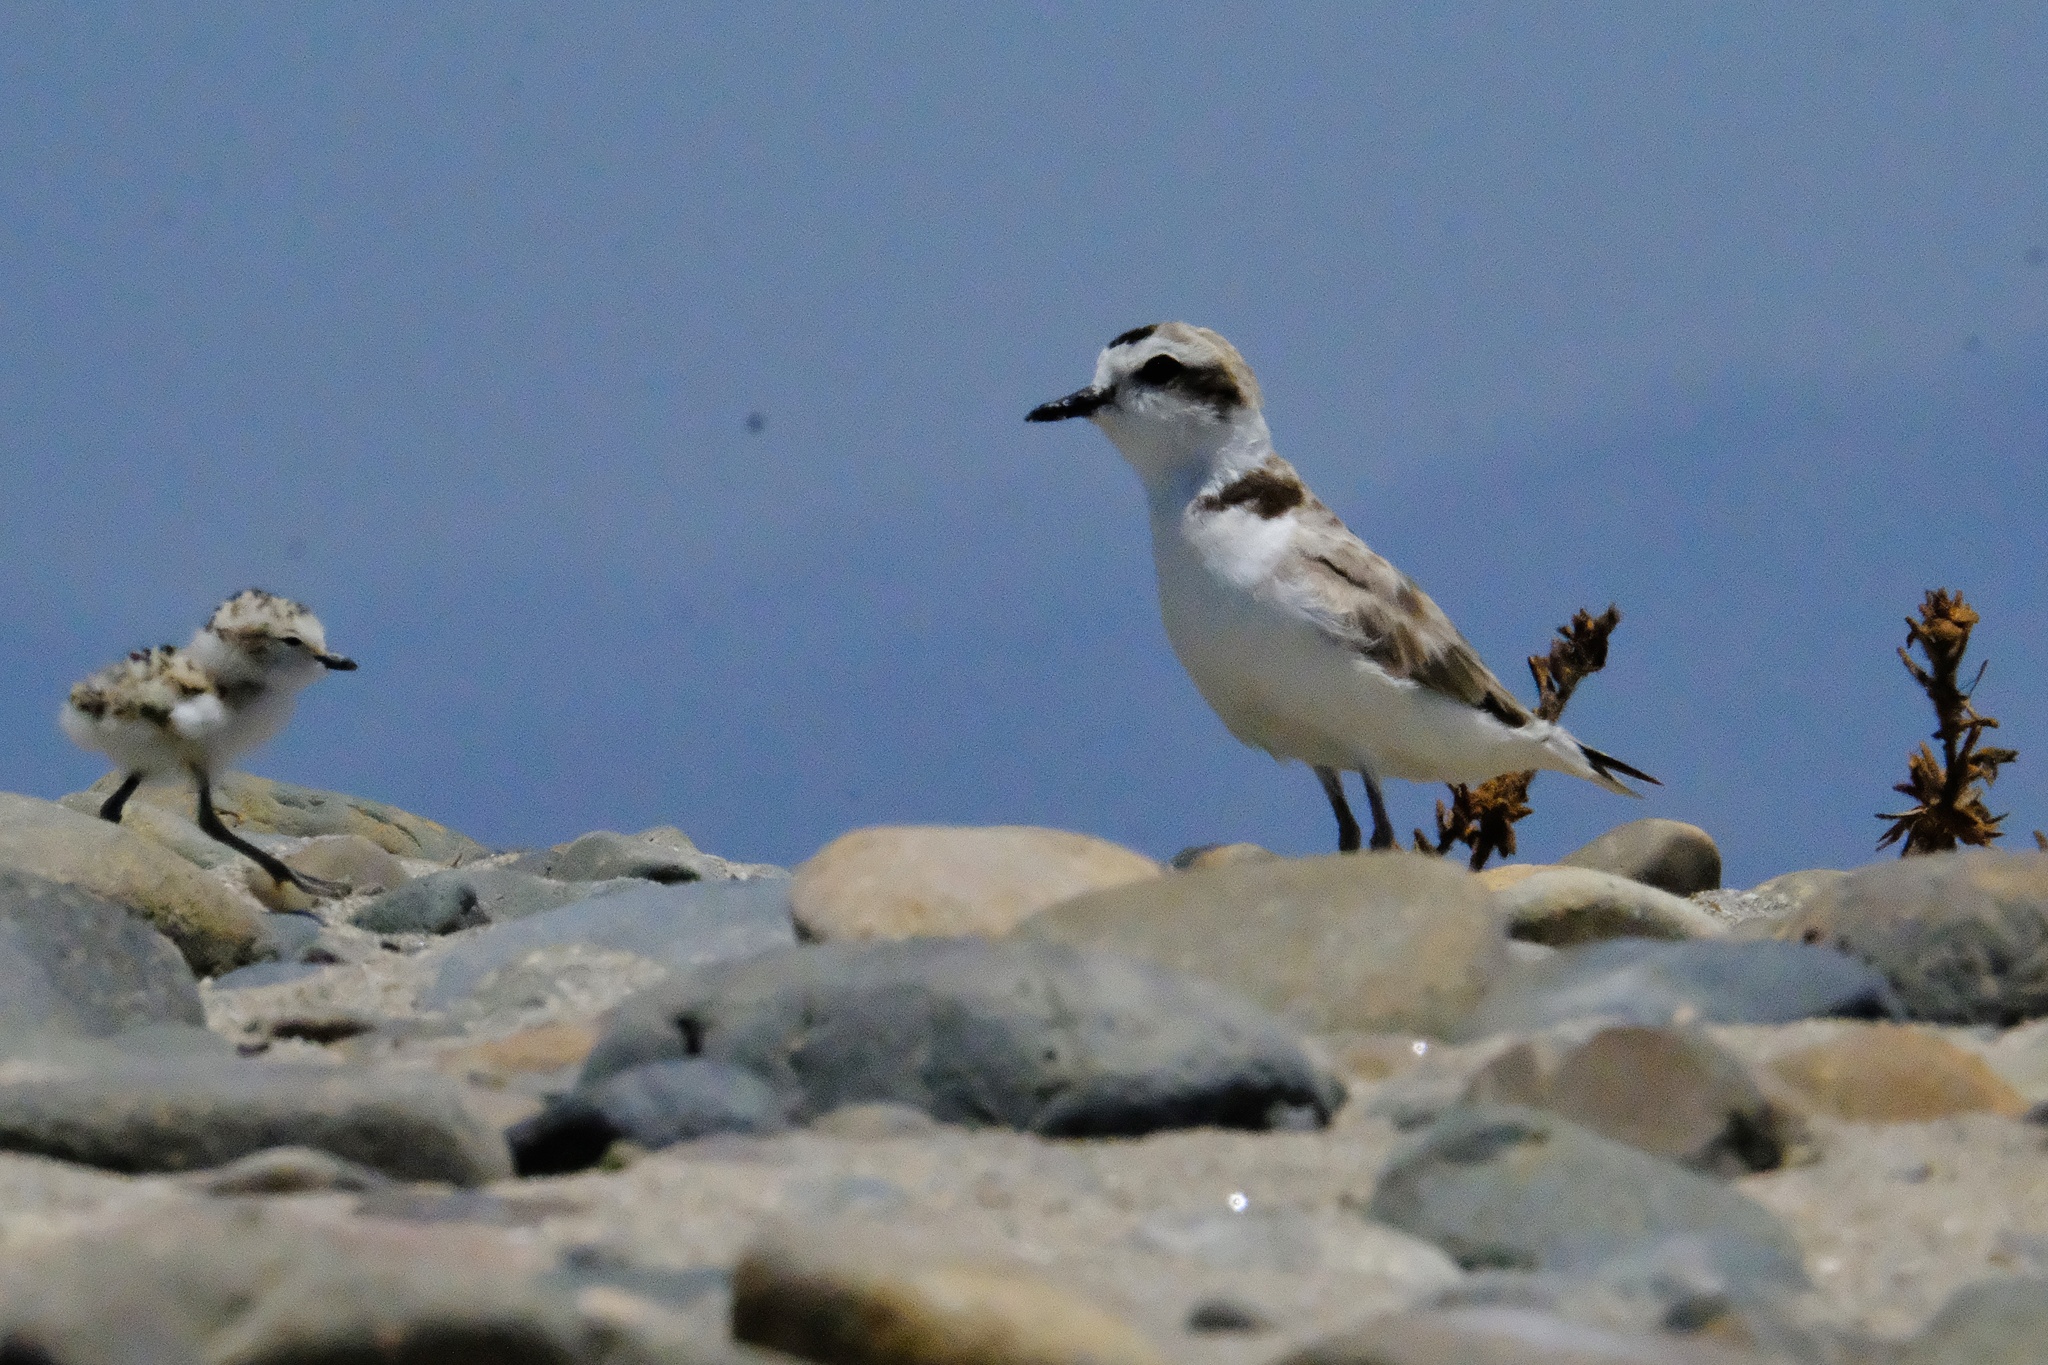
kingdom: Animalia
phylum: Chordata
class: Aves
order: Charadriiformes
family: Charadriidae
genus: Anarhynchus
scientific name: Anarhynchus
